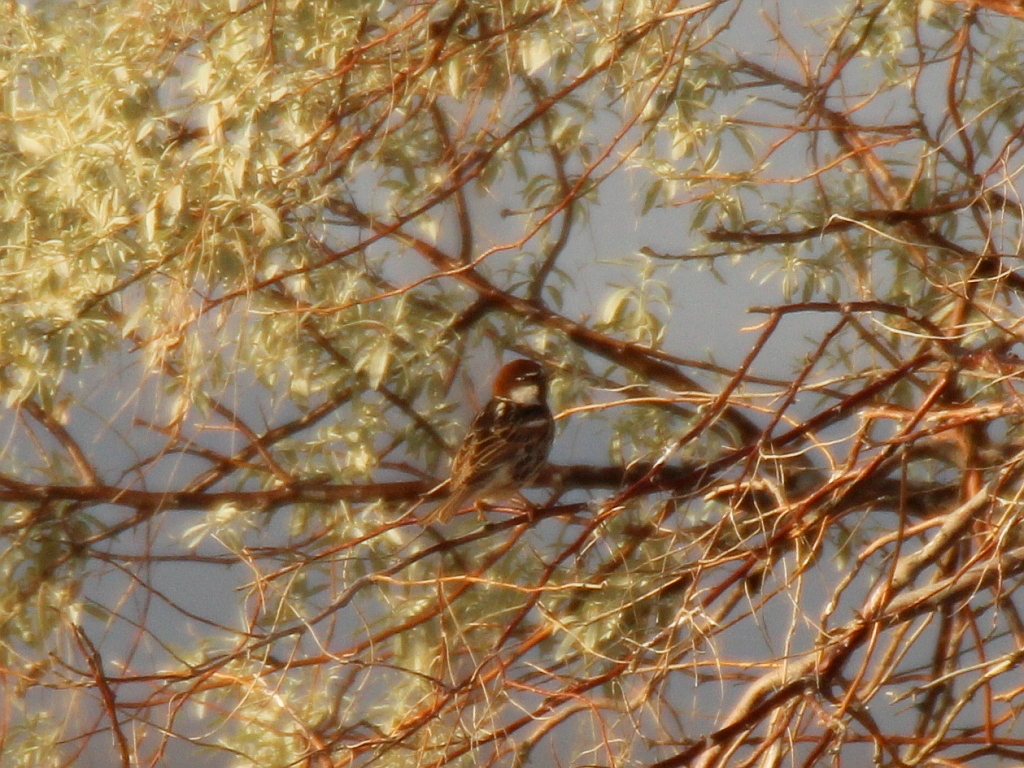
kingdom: Animalia
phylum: Chordata
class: Aves
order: Passeriformes
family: Passeridae
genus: Passer
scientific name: Passer hispaniolensis
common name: Spanish sparrow
